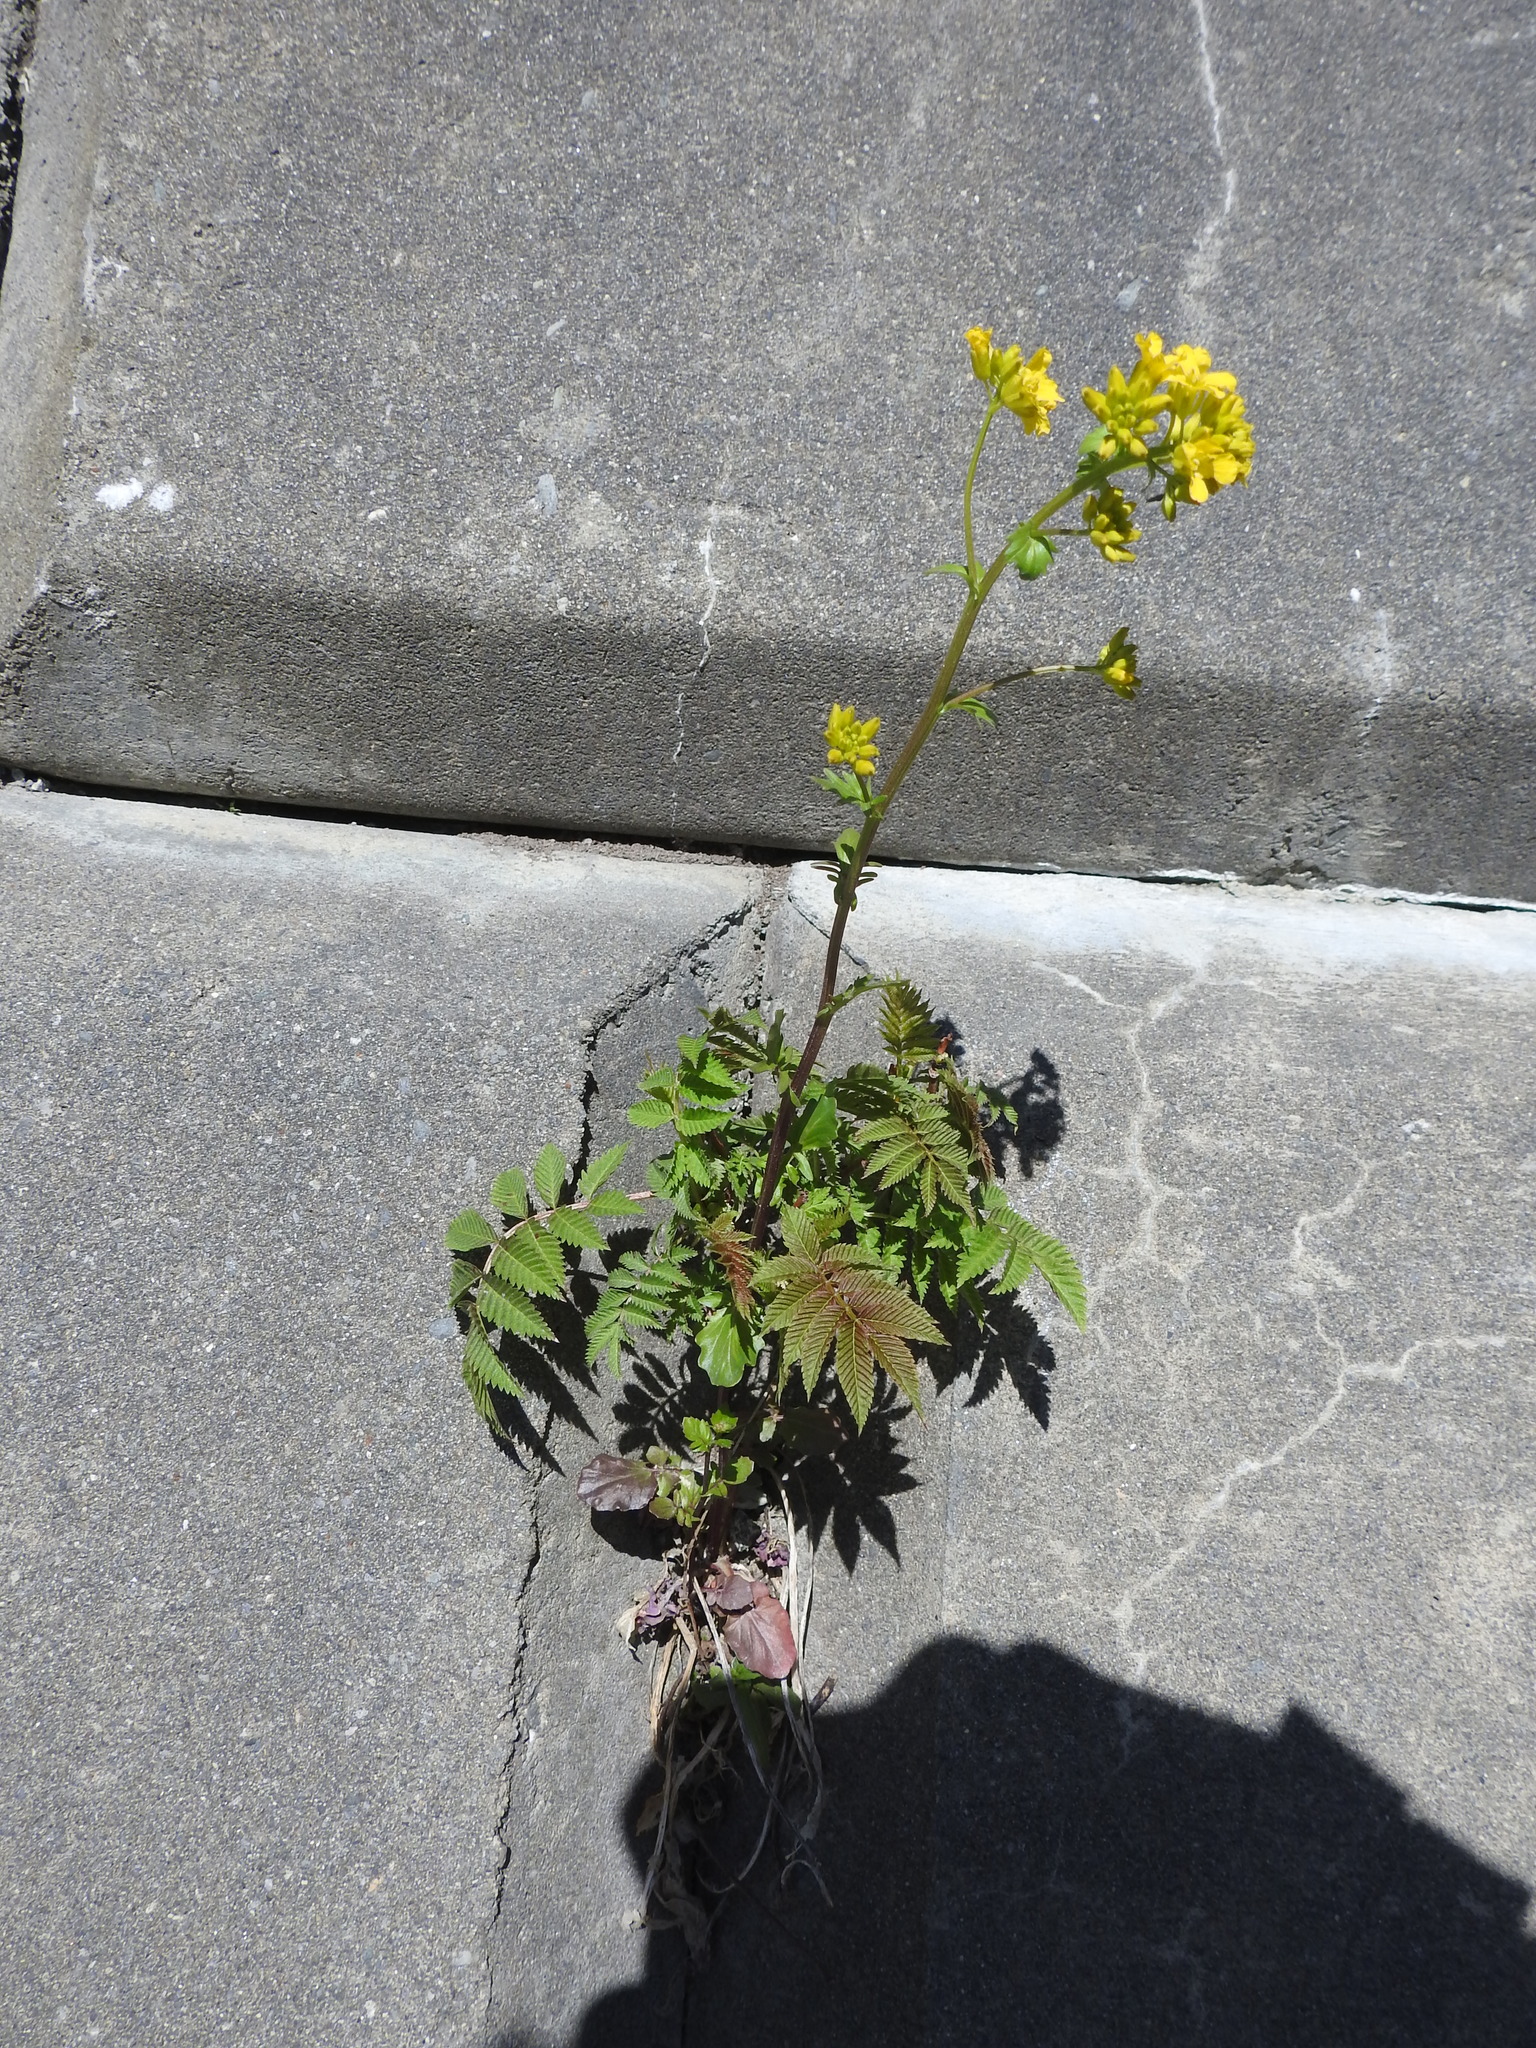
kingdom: Plantae
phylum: Tracheophyta
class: Magnoliopsida
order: Brassicales
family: Brassicaceae
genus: Barbarea
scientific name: Barbarea vulgaris
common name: Cressy-greens
